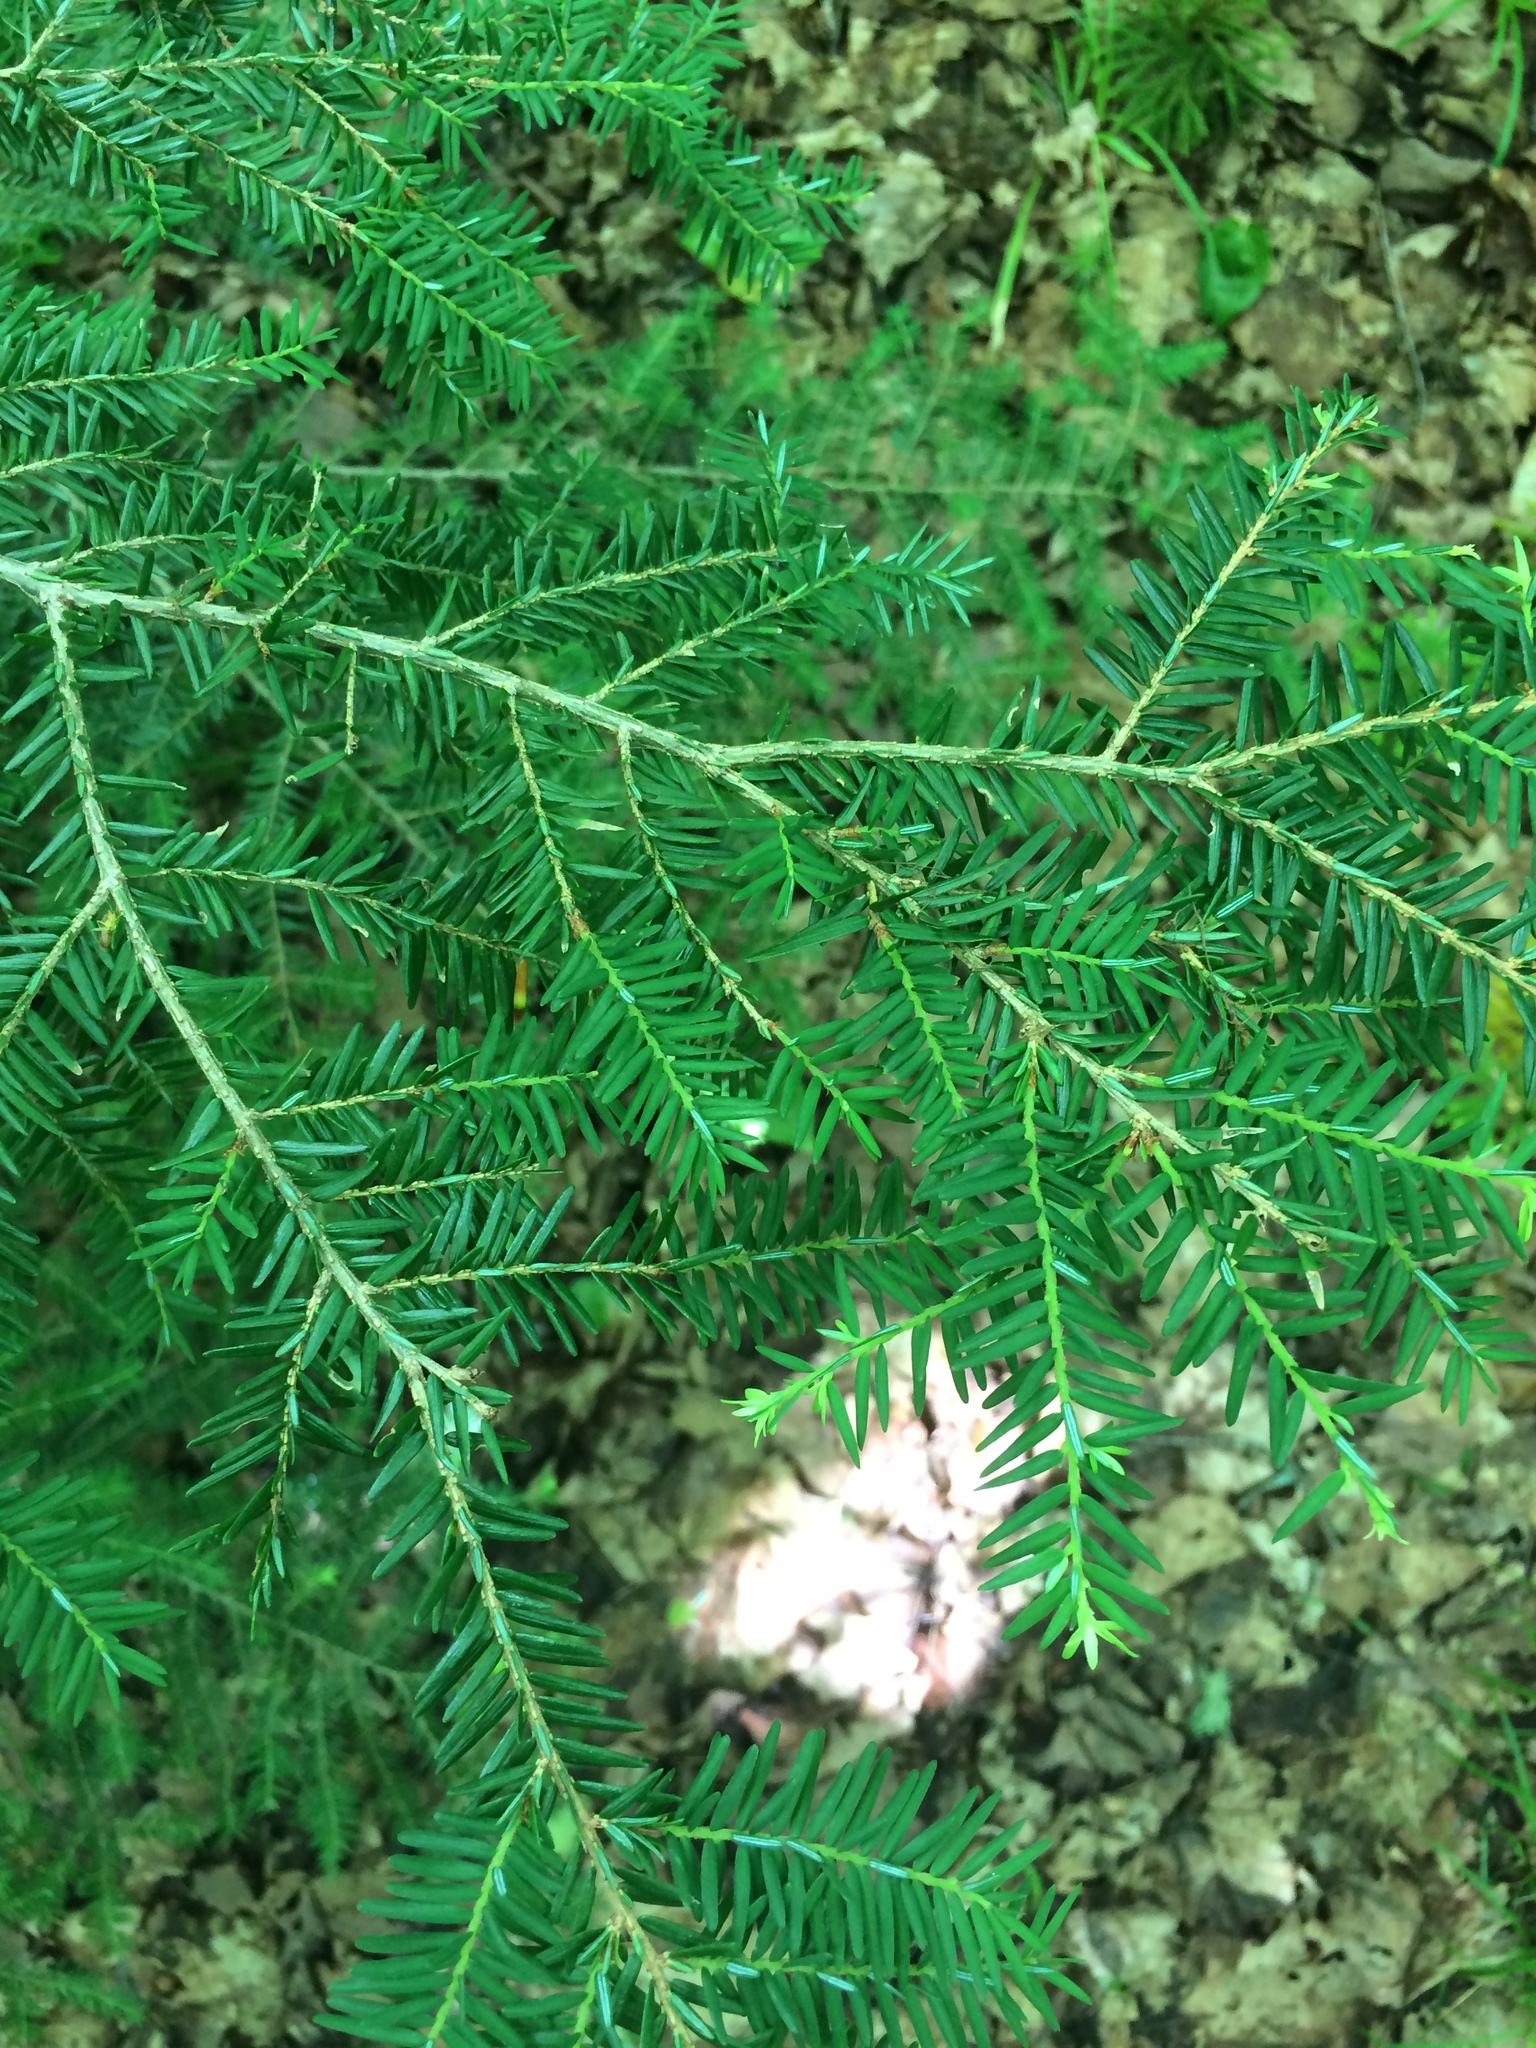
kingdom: Plantae
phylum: Tracheophyta
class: Pinopsida
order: Pinales
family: Pinaceae
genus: Tsuga
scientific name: Tsuga canadensis
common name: Eastern hemlock
